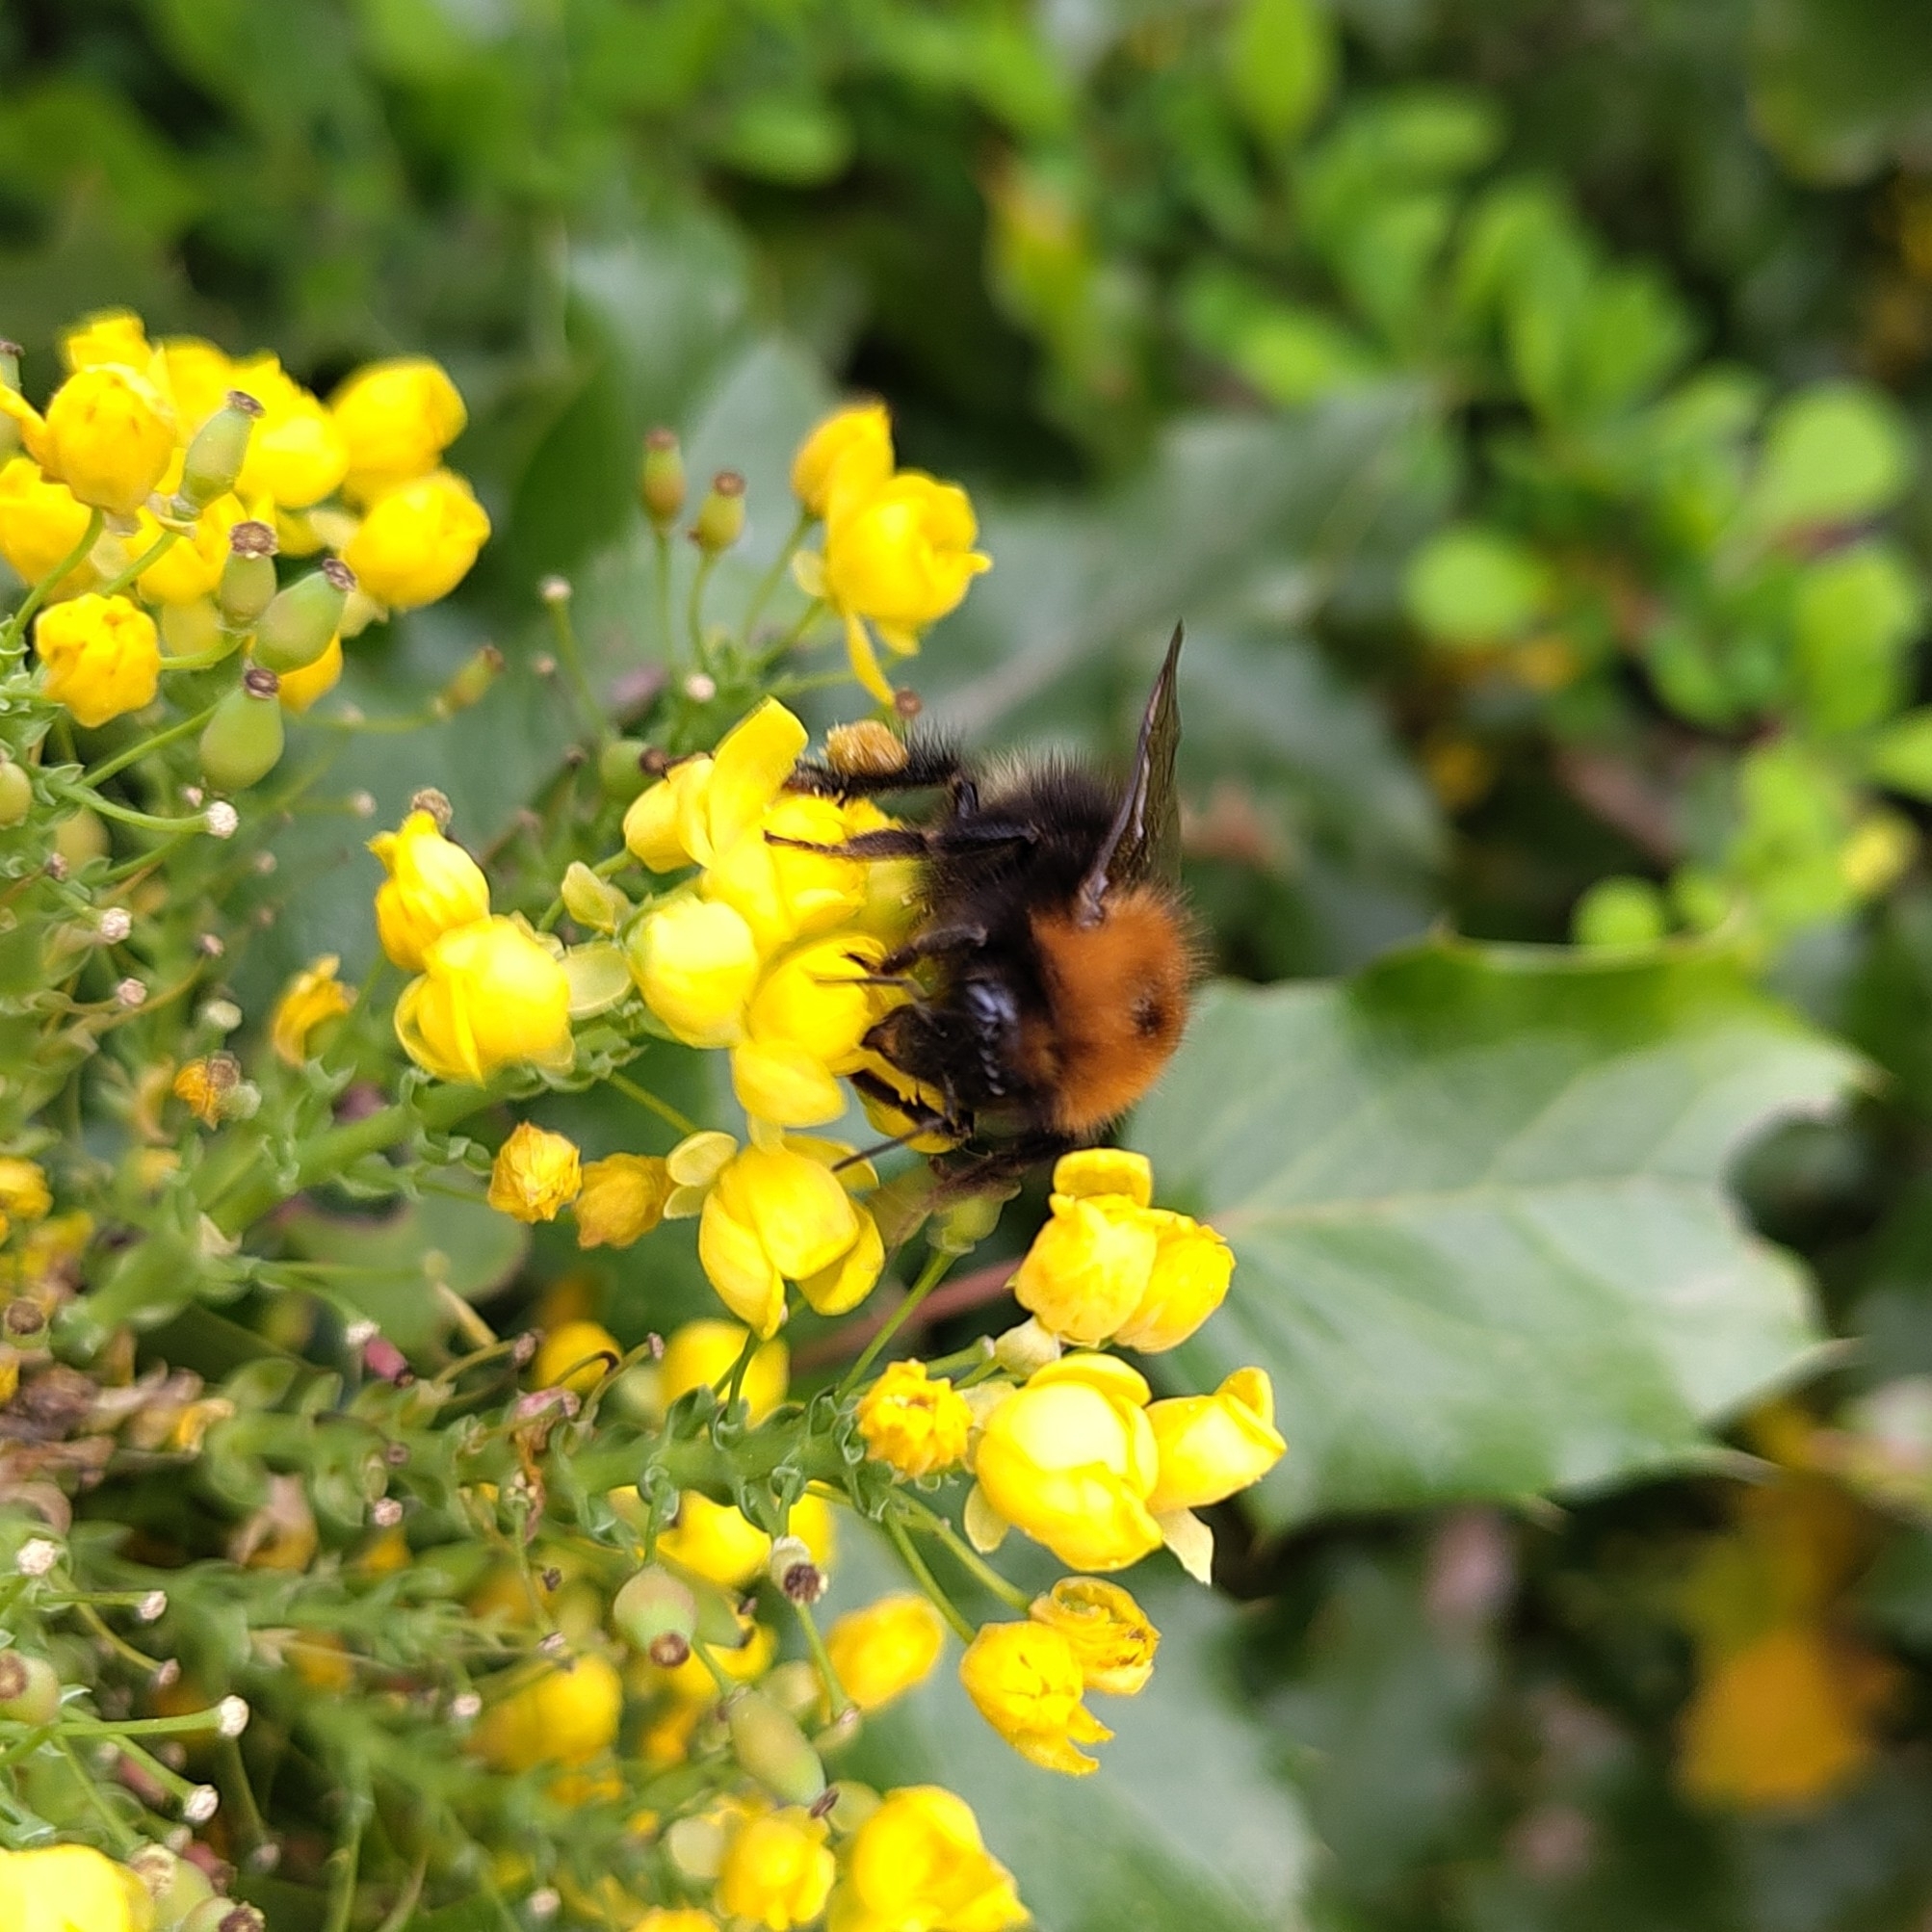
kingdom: Animalia
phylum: Arthropoda
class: Insecta
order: Hymenoptera
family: Apidae
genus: Bombus
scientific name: Bombus hypnorum
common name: New garden bumblebee
